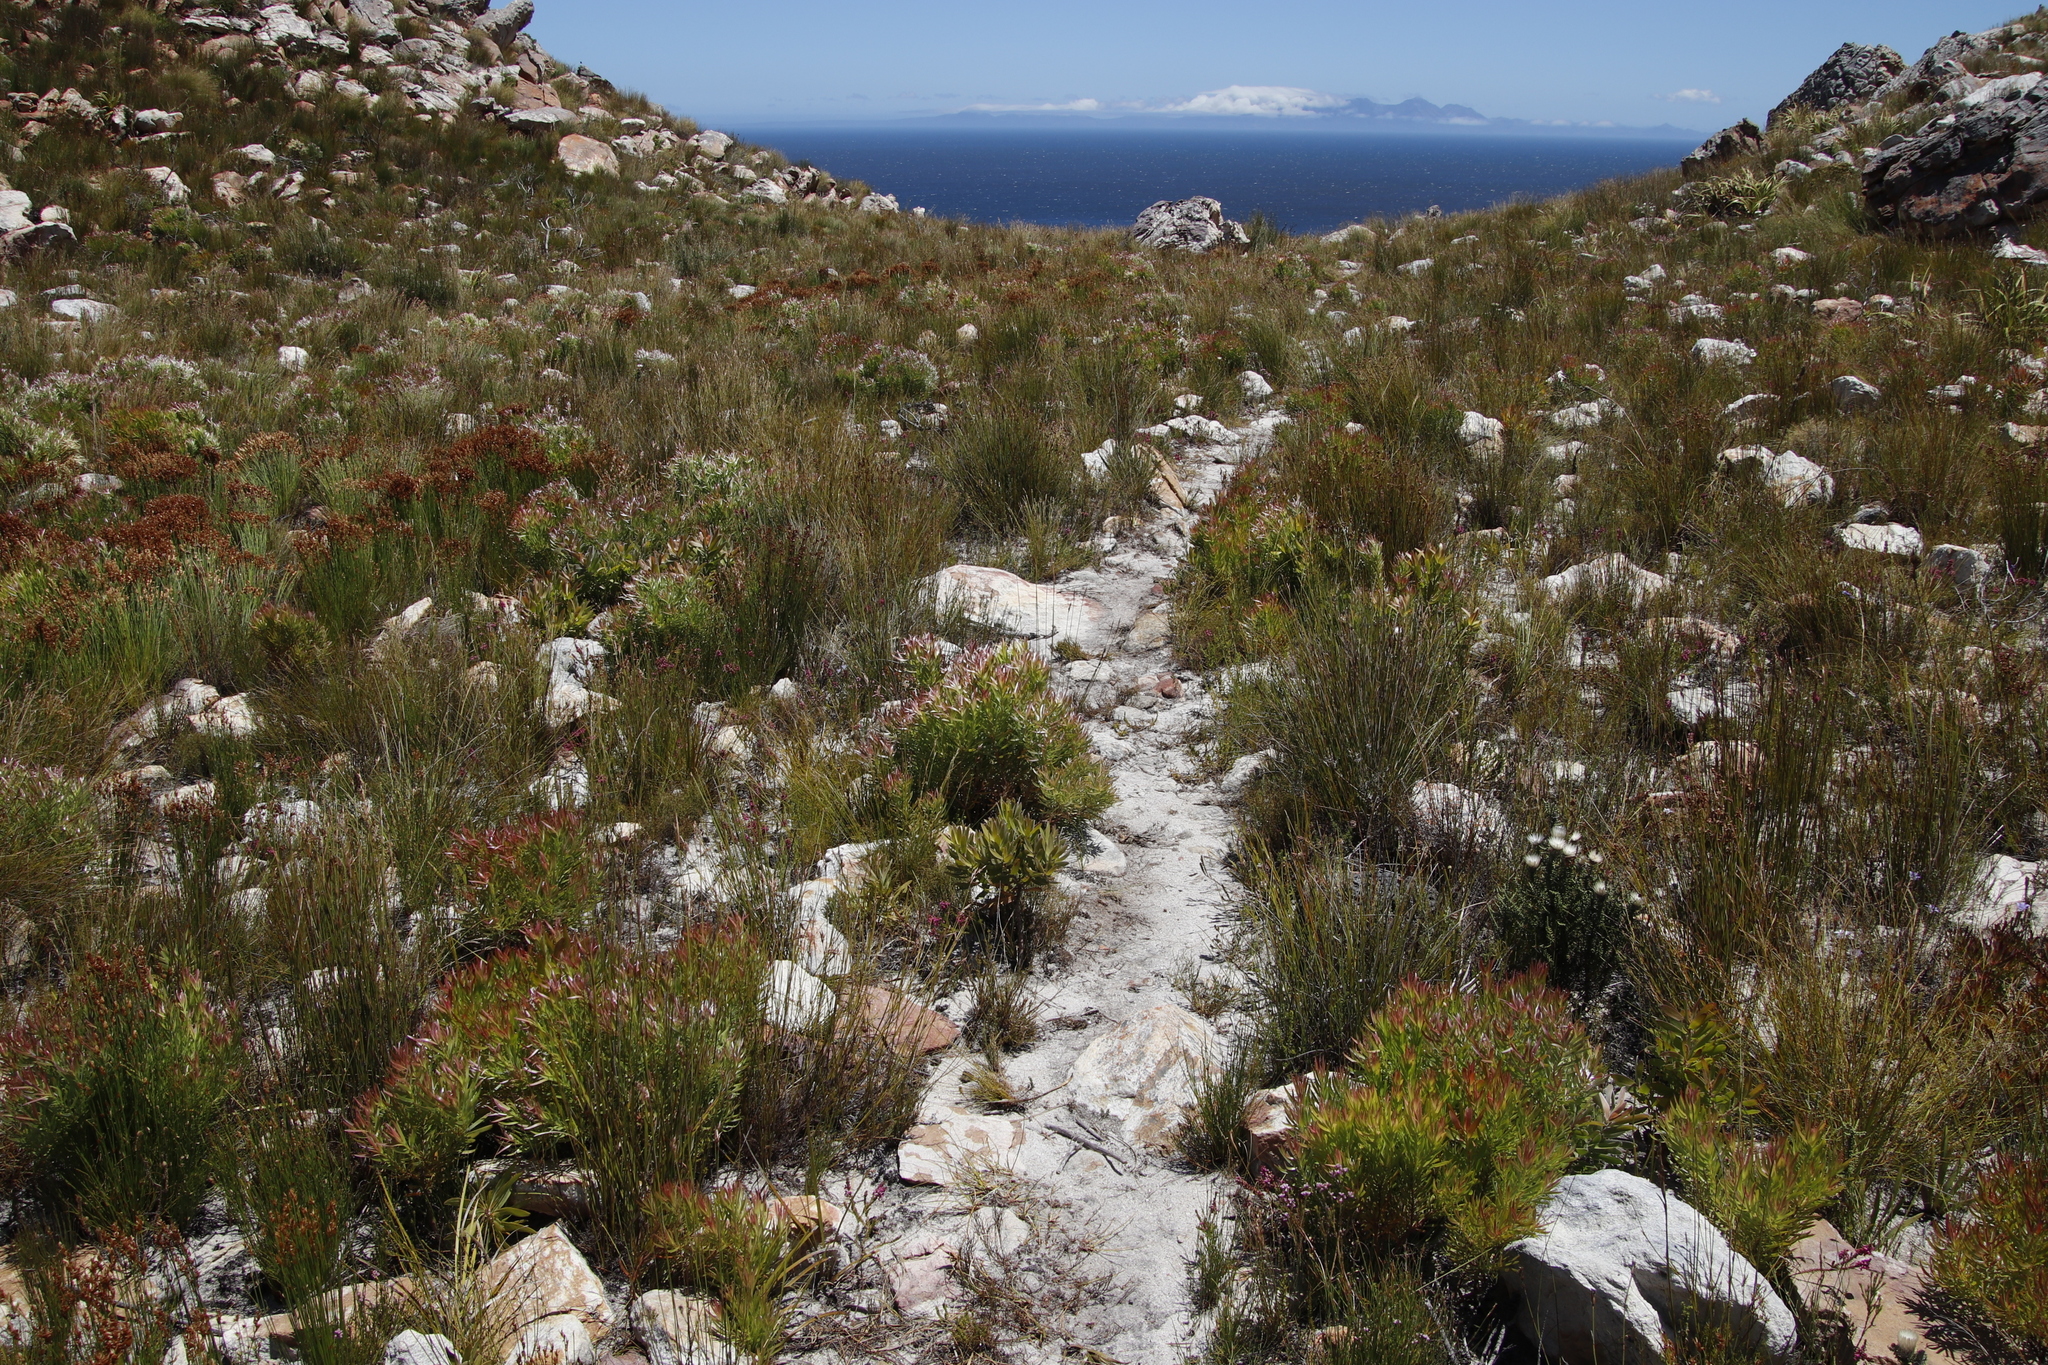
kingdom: Plantae
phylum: Tracheophyta
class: Magnoliopsida
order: Proteales
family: Proteaceae
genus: Leucadendron
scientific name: Leucadendron xanthoconus
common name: Sickle-leaf conebush
